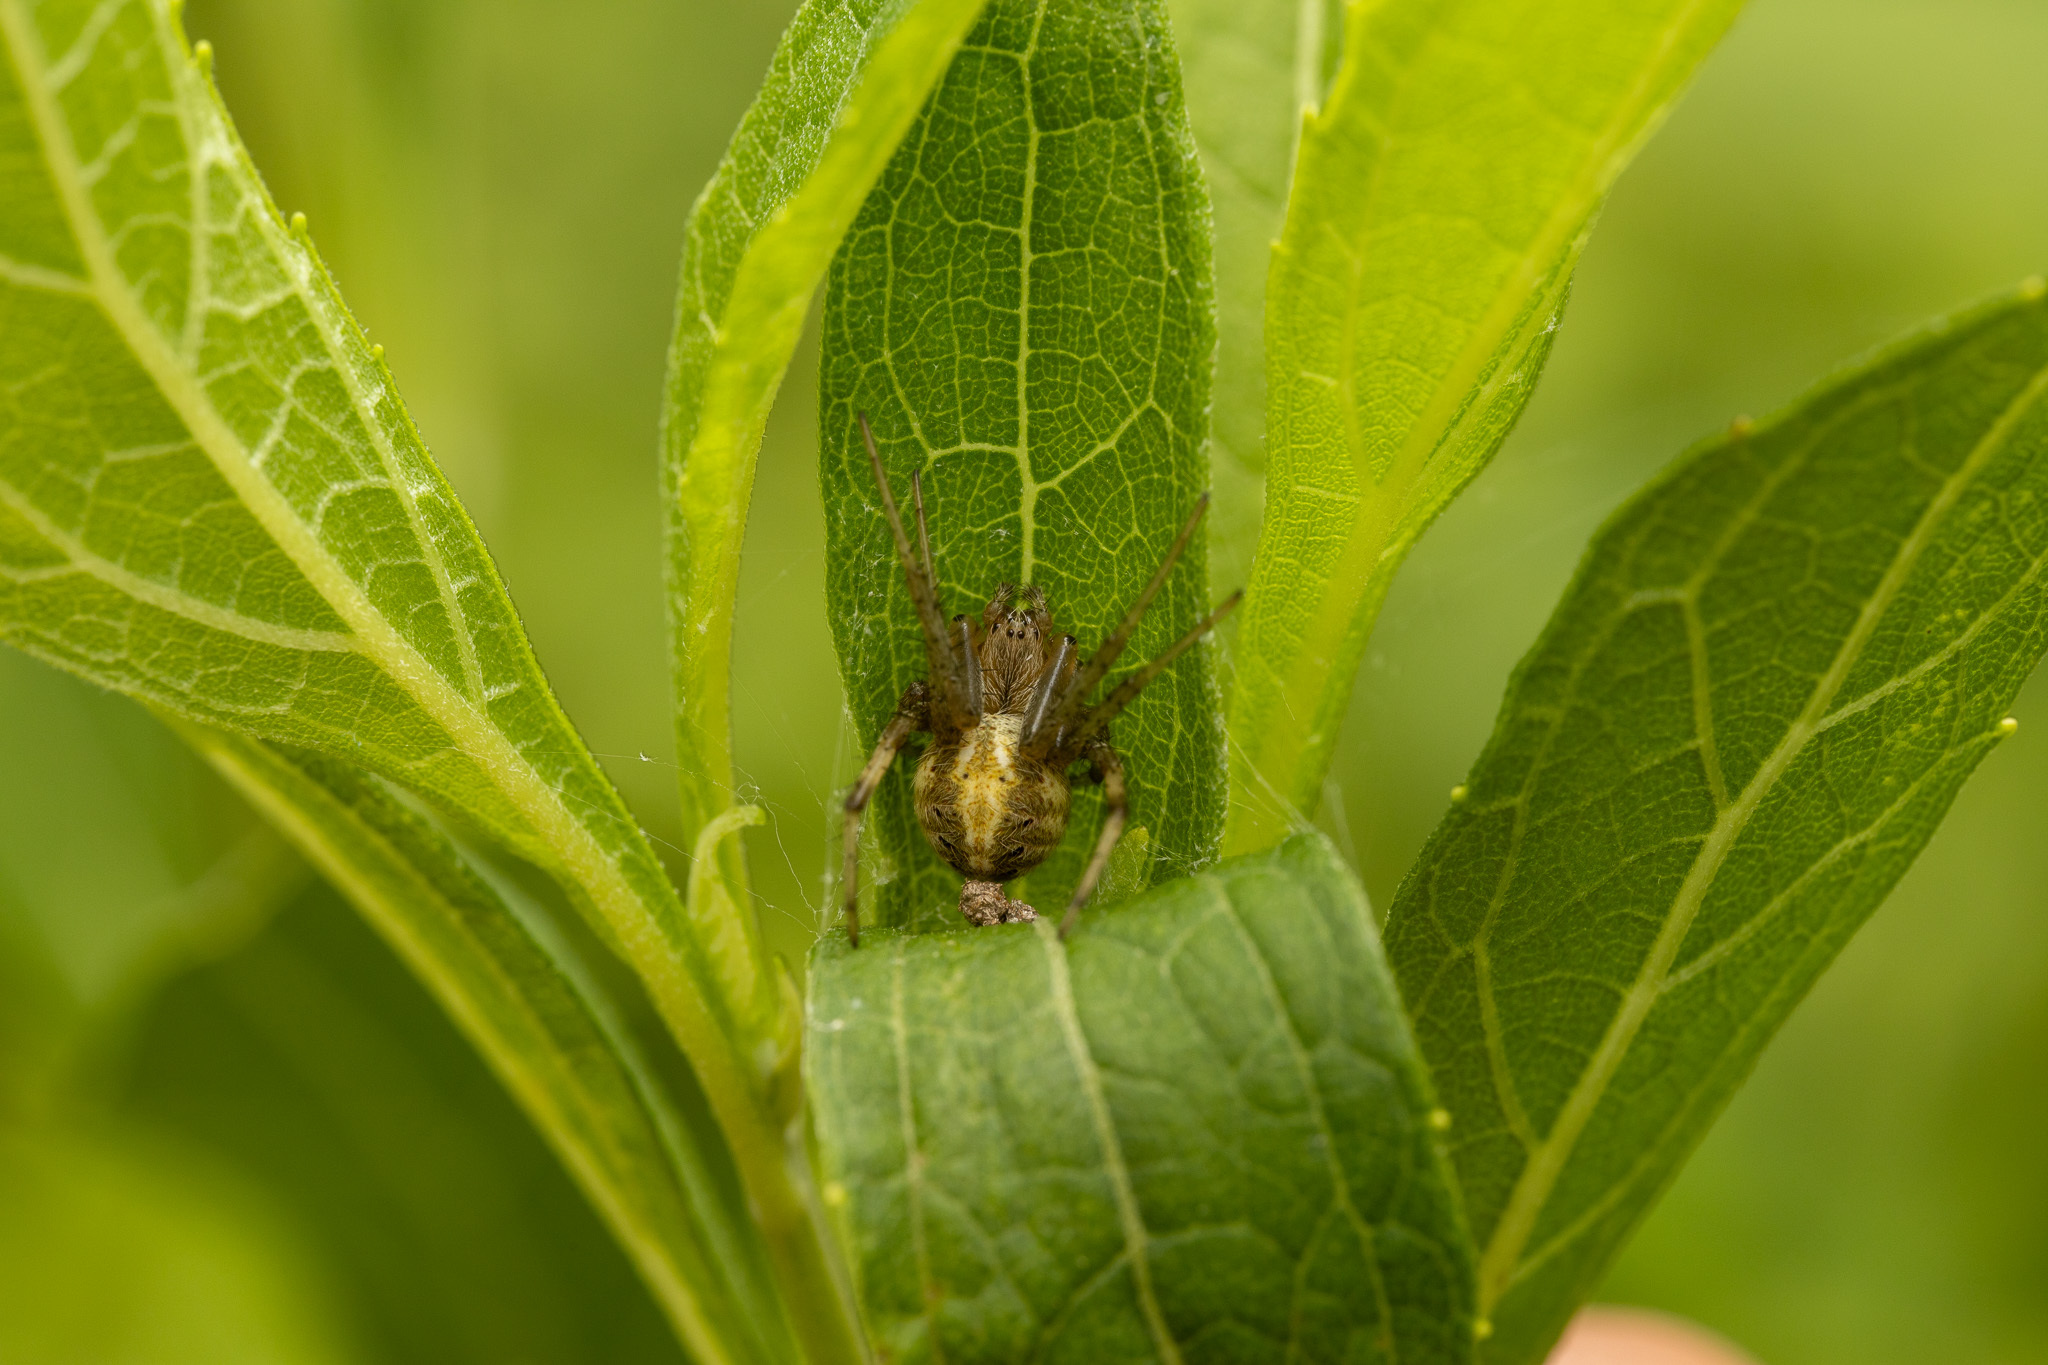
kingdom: Animalia
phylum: Arthropoda
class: Arachnida
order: Araneae
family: Araneidae
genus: Neoscona
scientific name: Neoscona arabesca
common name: Orb weavers
